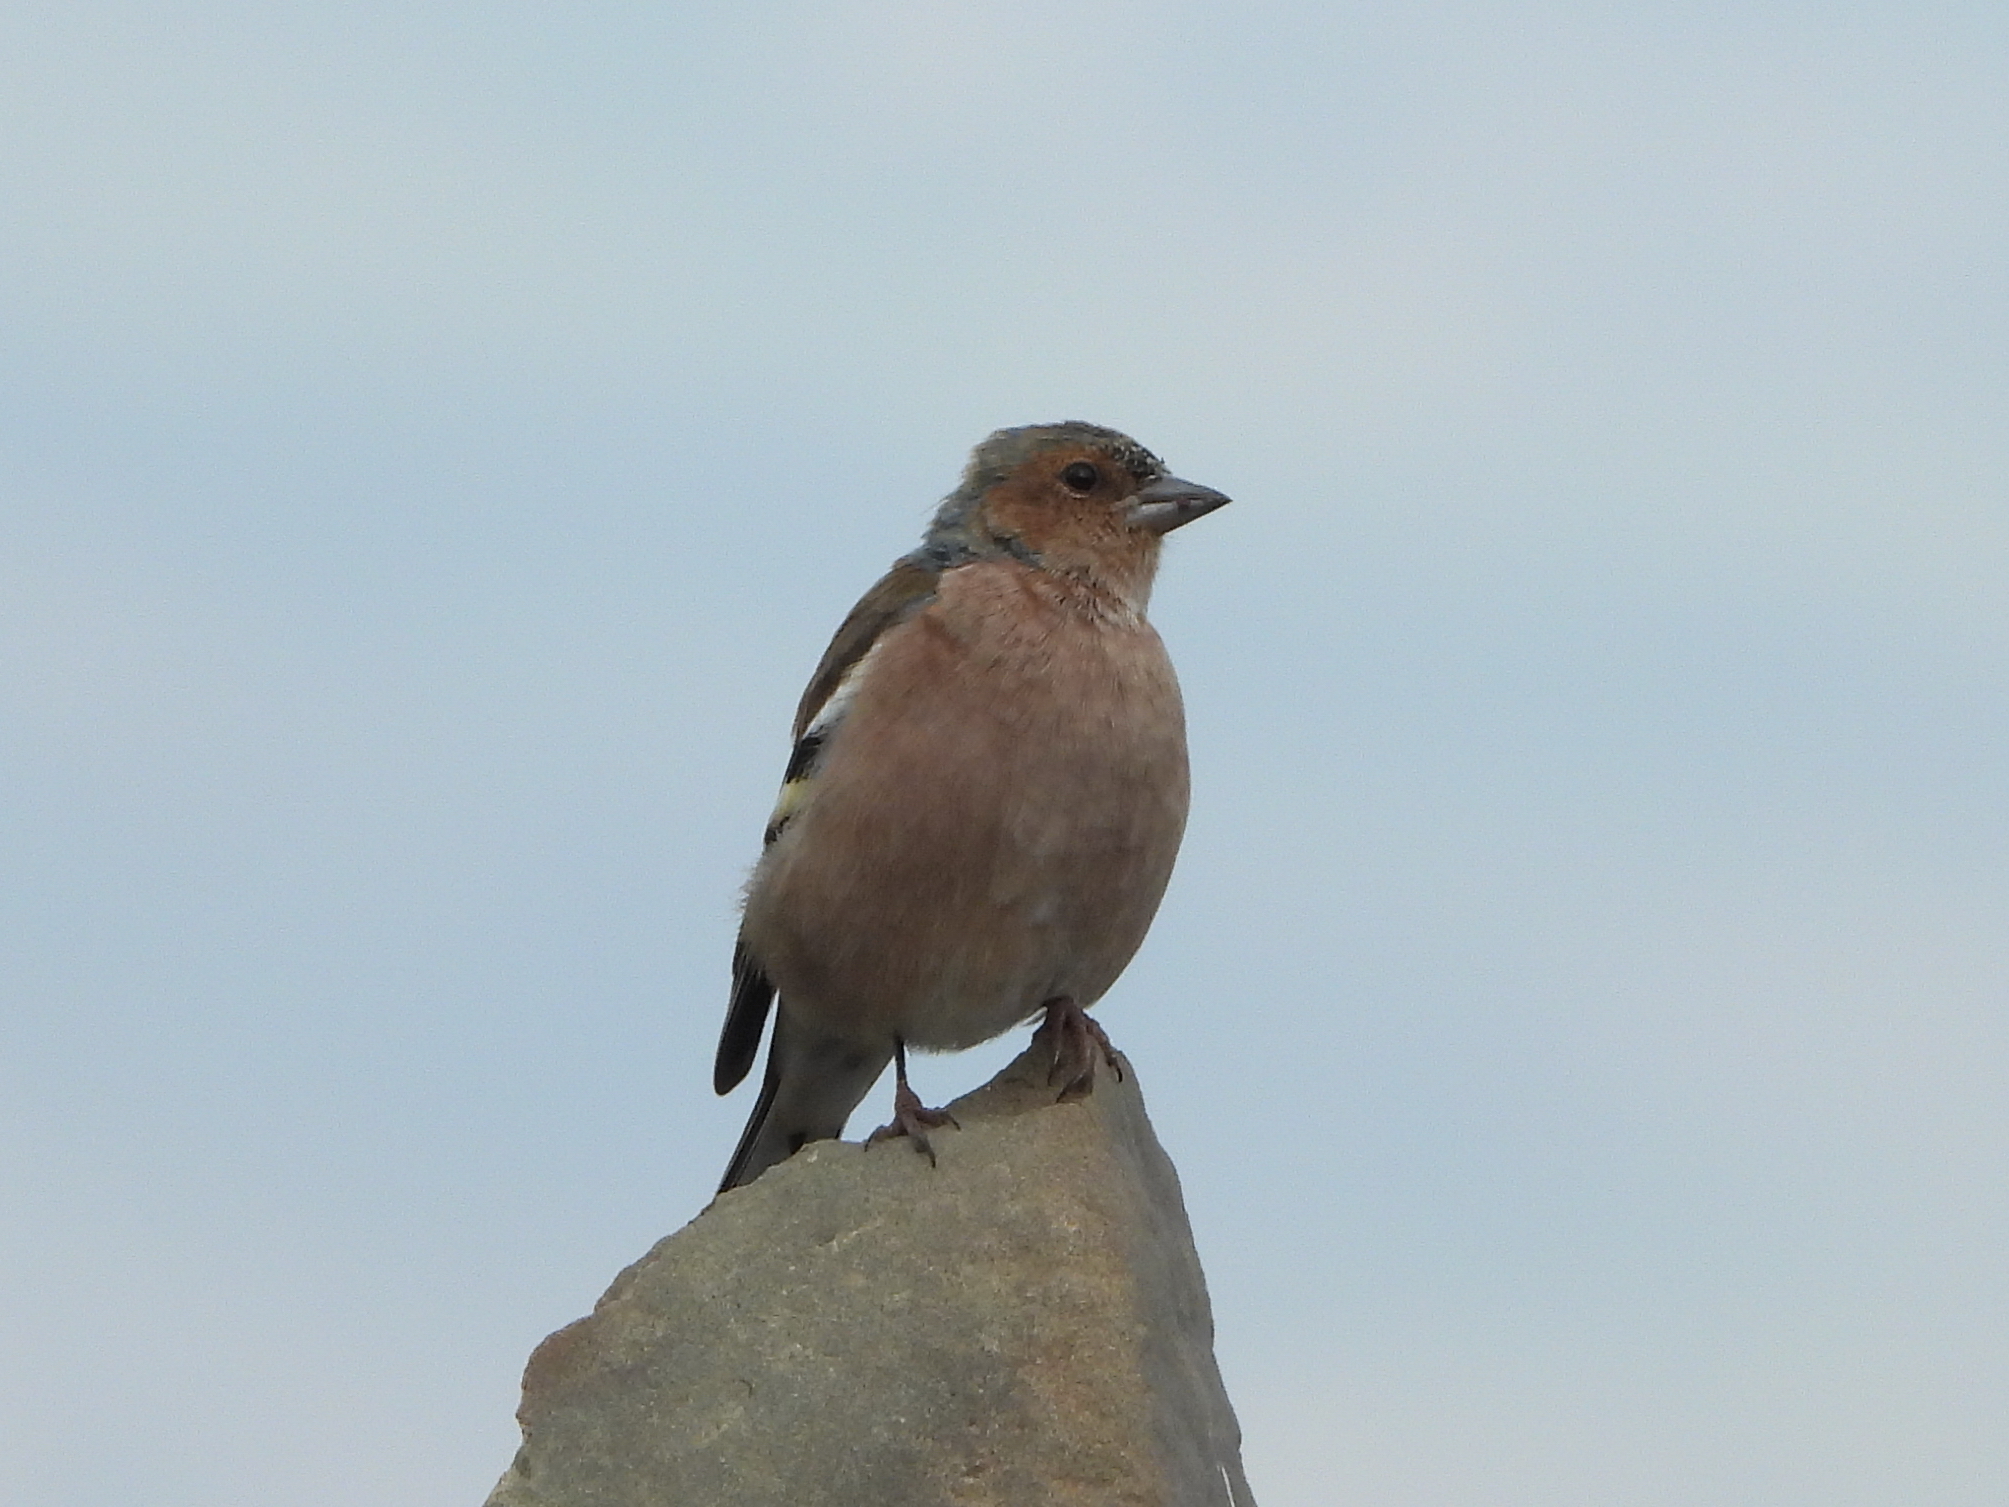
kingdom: Animalia
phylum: Chordata
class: Aves
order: Passeriformes
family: Fringillidae
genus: Fringilla
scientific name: Fringilla coelebs
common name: Common chaffinch
